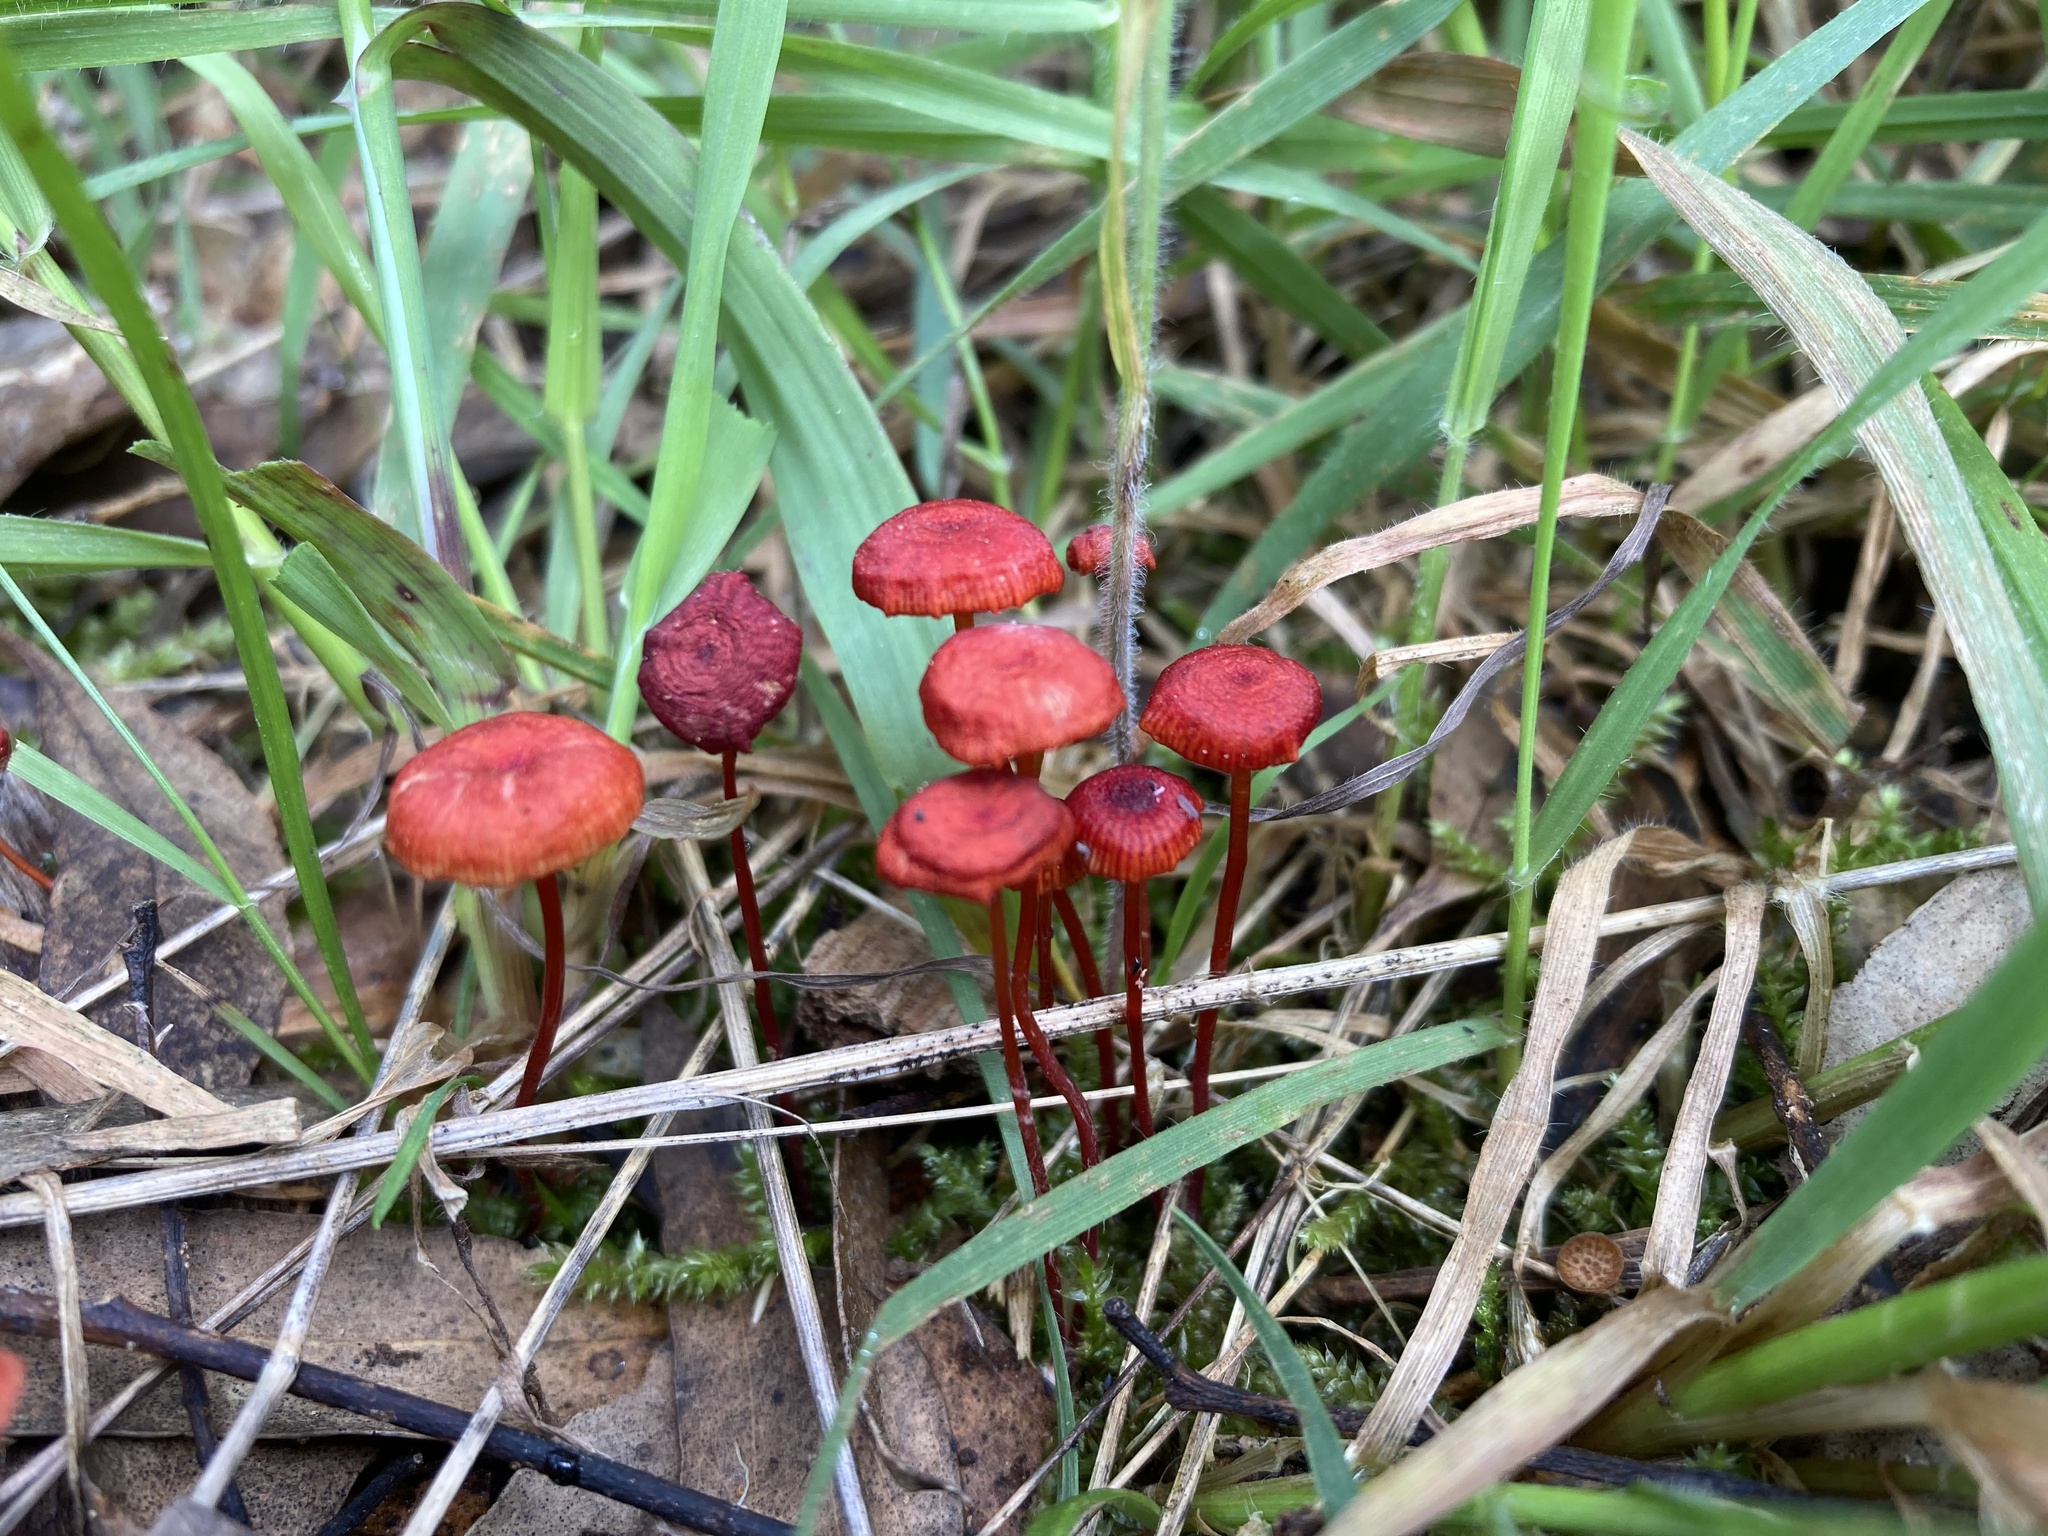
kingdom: Fungi
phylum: Basidiomycota
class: Agaricomycetes
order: Agaricales
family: Mycenaceae
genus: Cruentomycena
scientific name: Cruentomycena viscidocruenta
